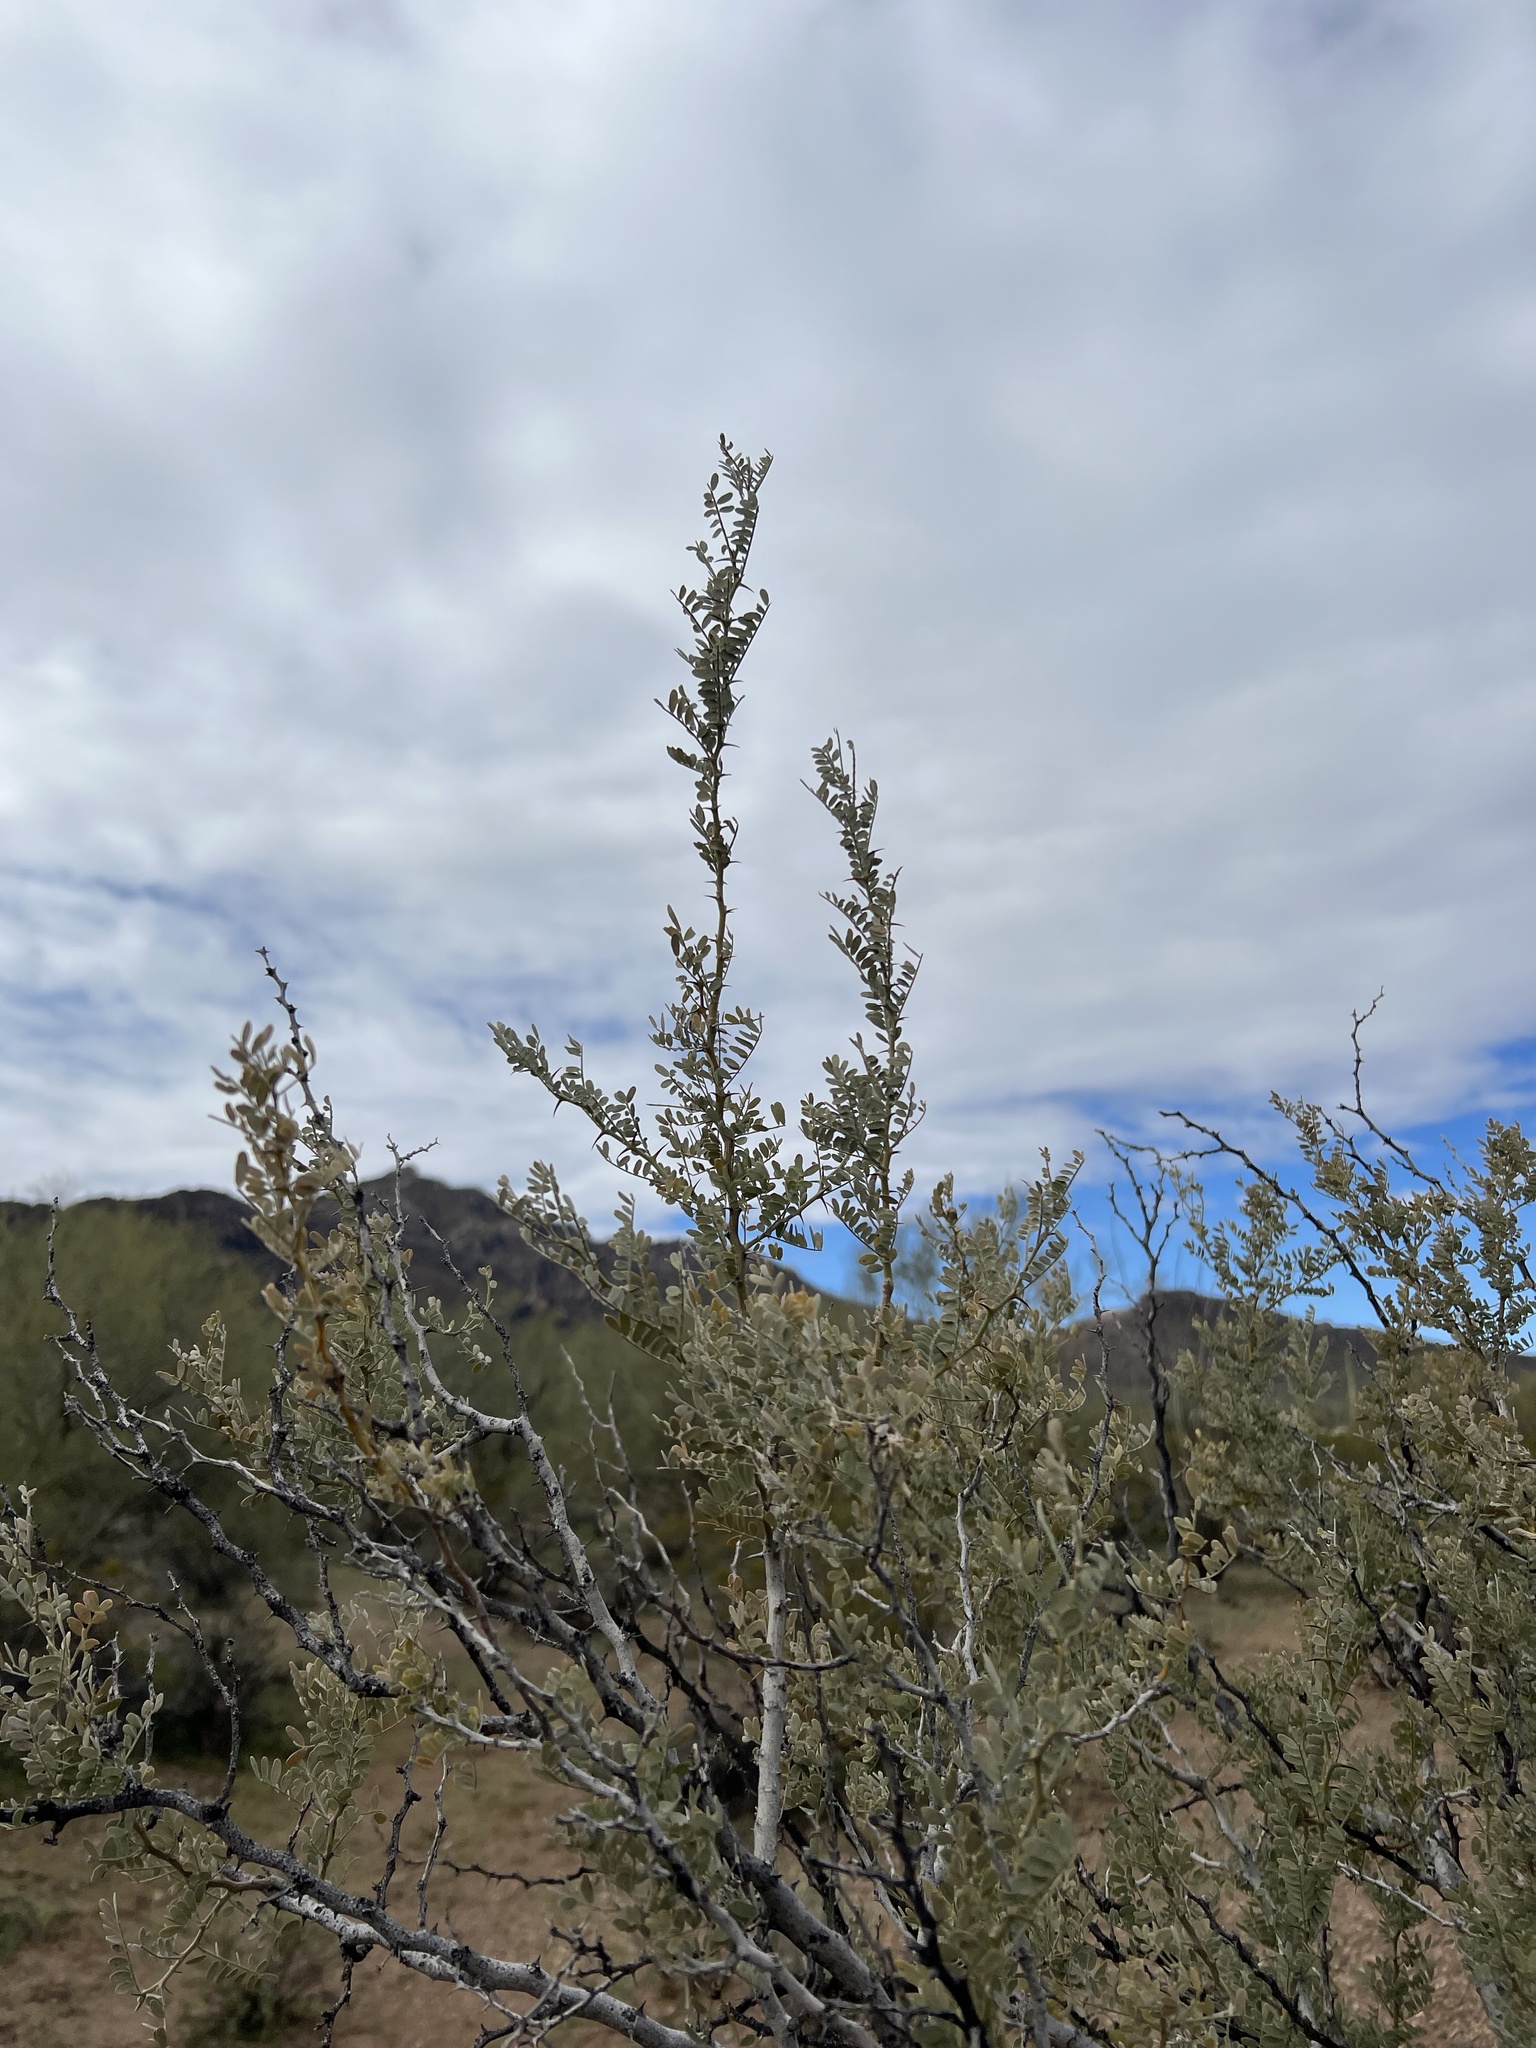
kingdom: Plantae
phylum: Tracheophyta
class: Magnoliopsida
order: Fabales
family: Fabaceae
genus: Olneya
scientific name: Olneya tesota
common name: Desert ironwood
